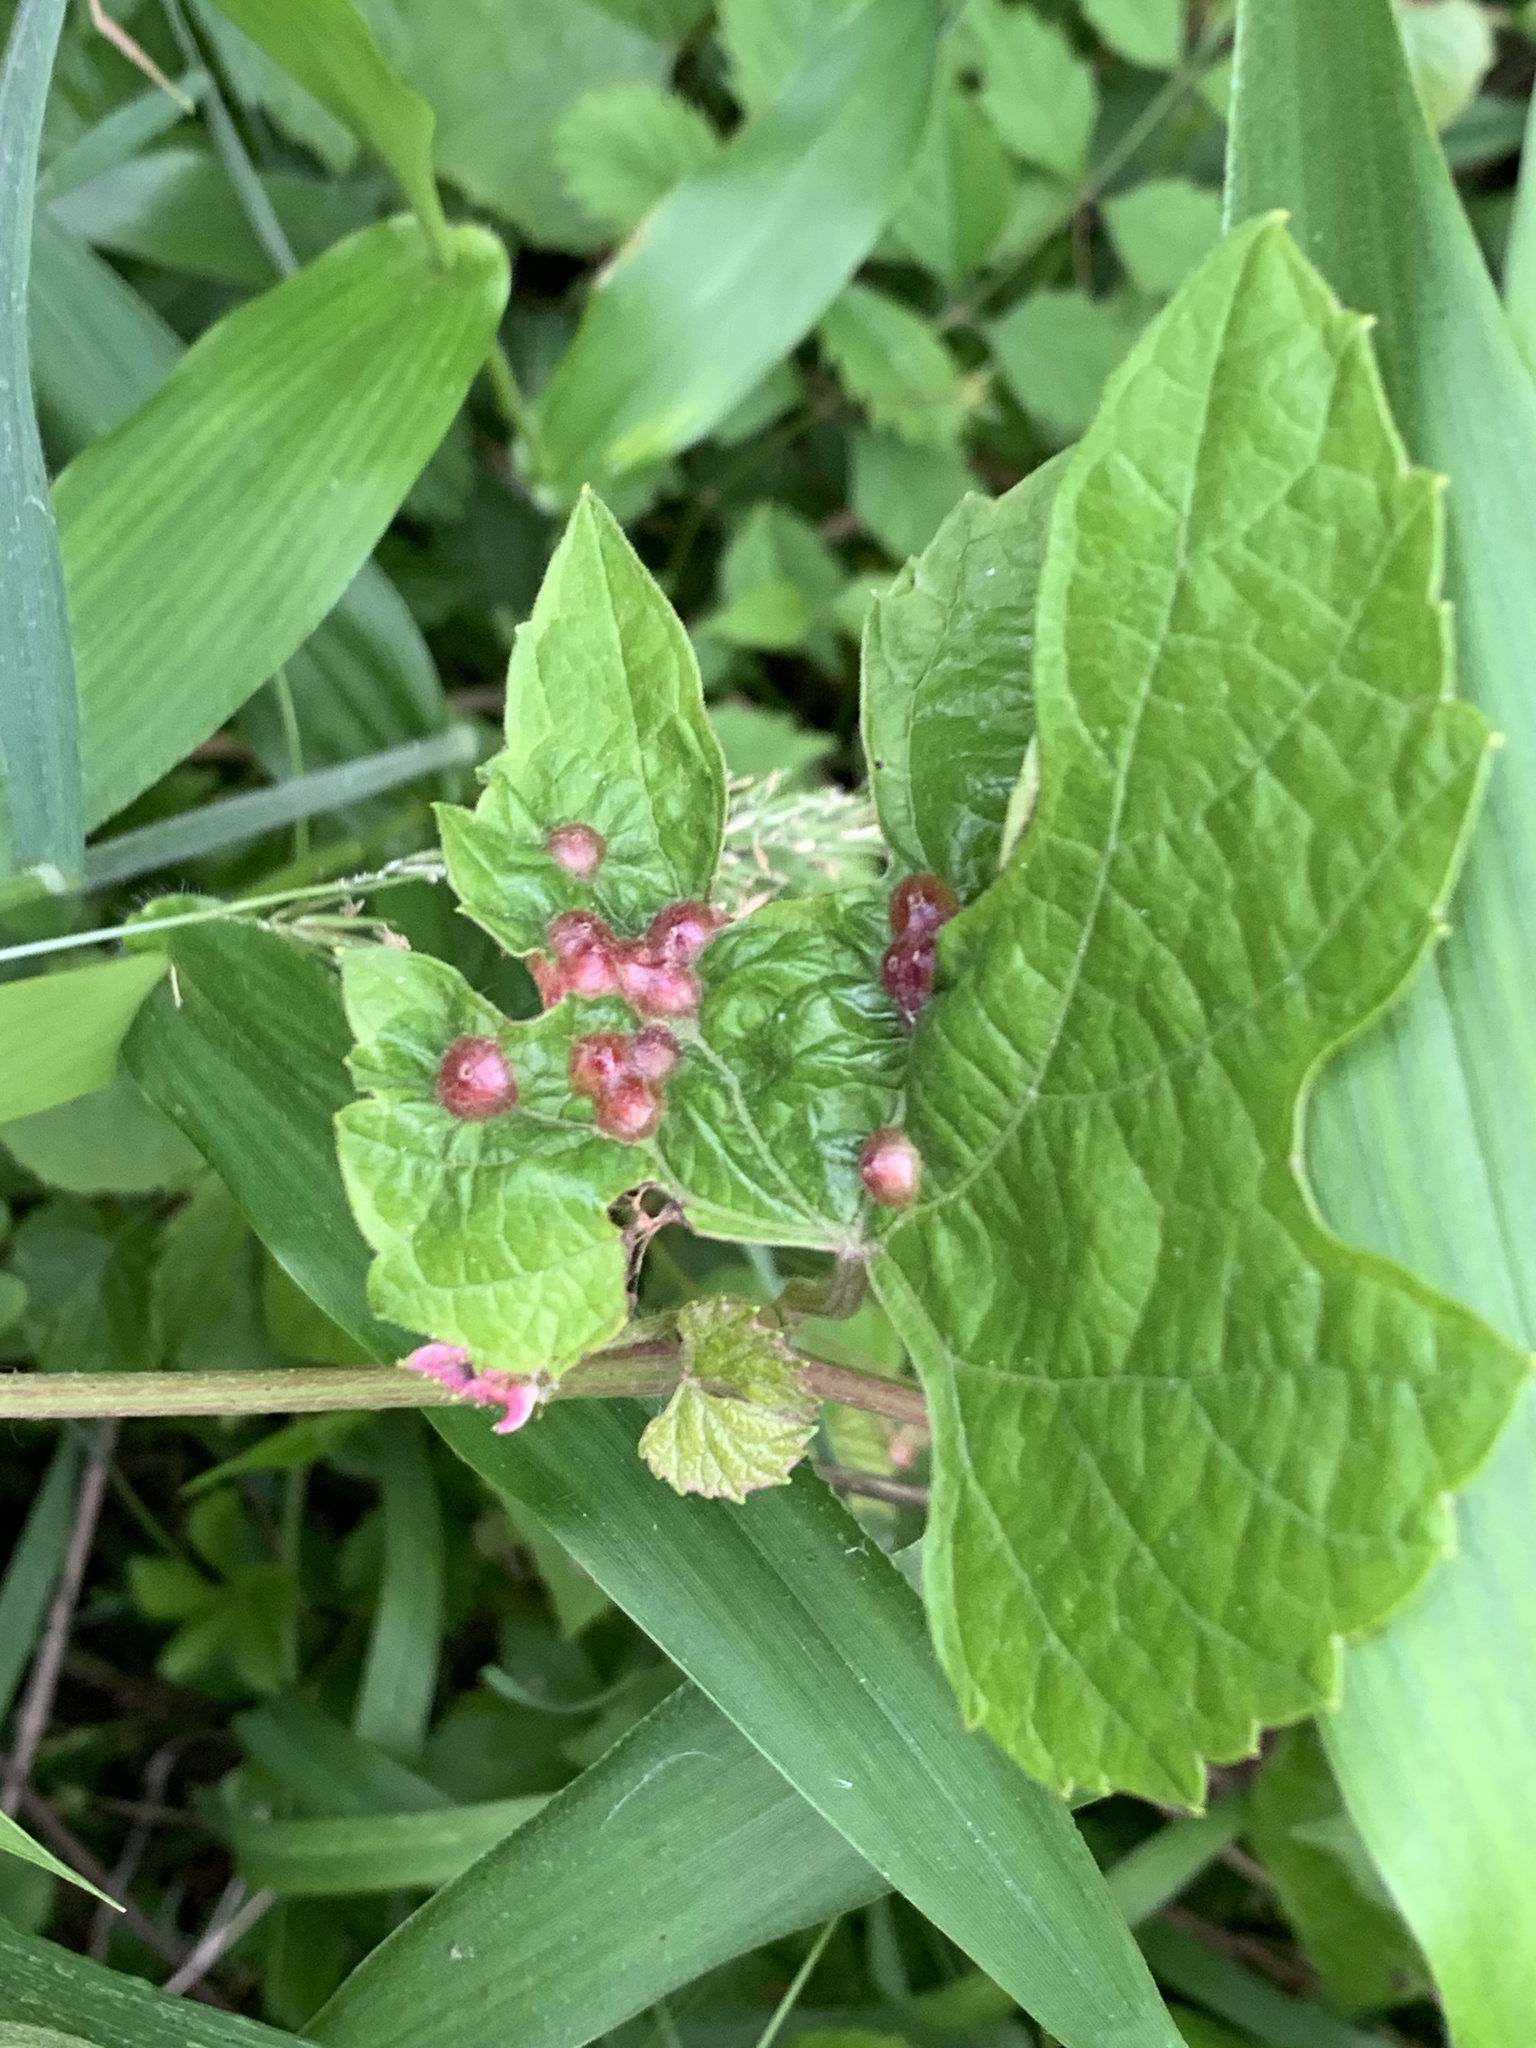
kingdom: Animalia
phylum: Arthropoda
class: Insecta
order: Diptera
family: Cecidomyiidae
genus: Vitisiella
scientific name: Vitisiella brevicauda
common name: Grape tumid gallmaker midge
